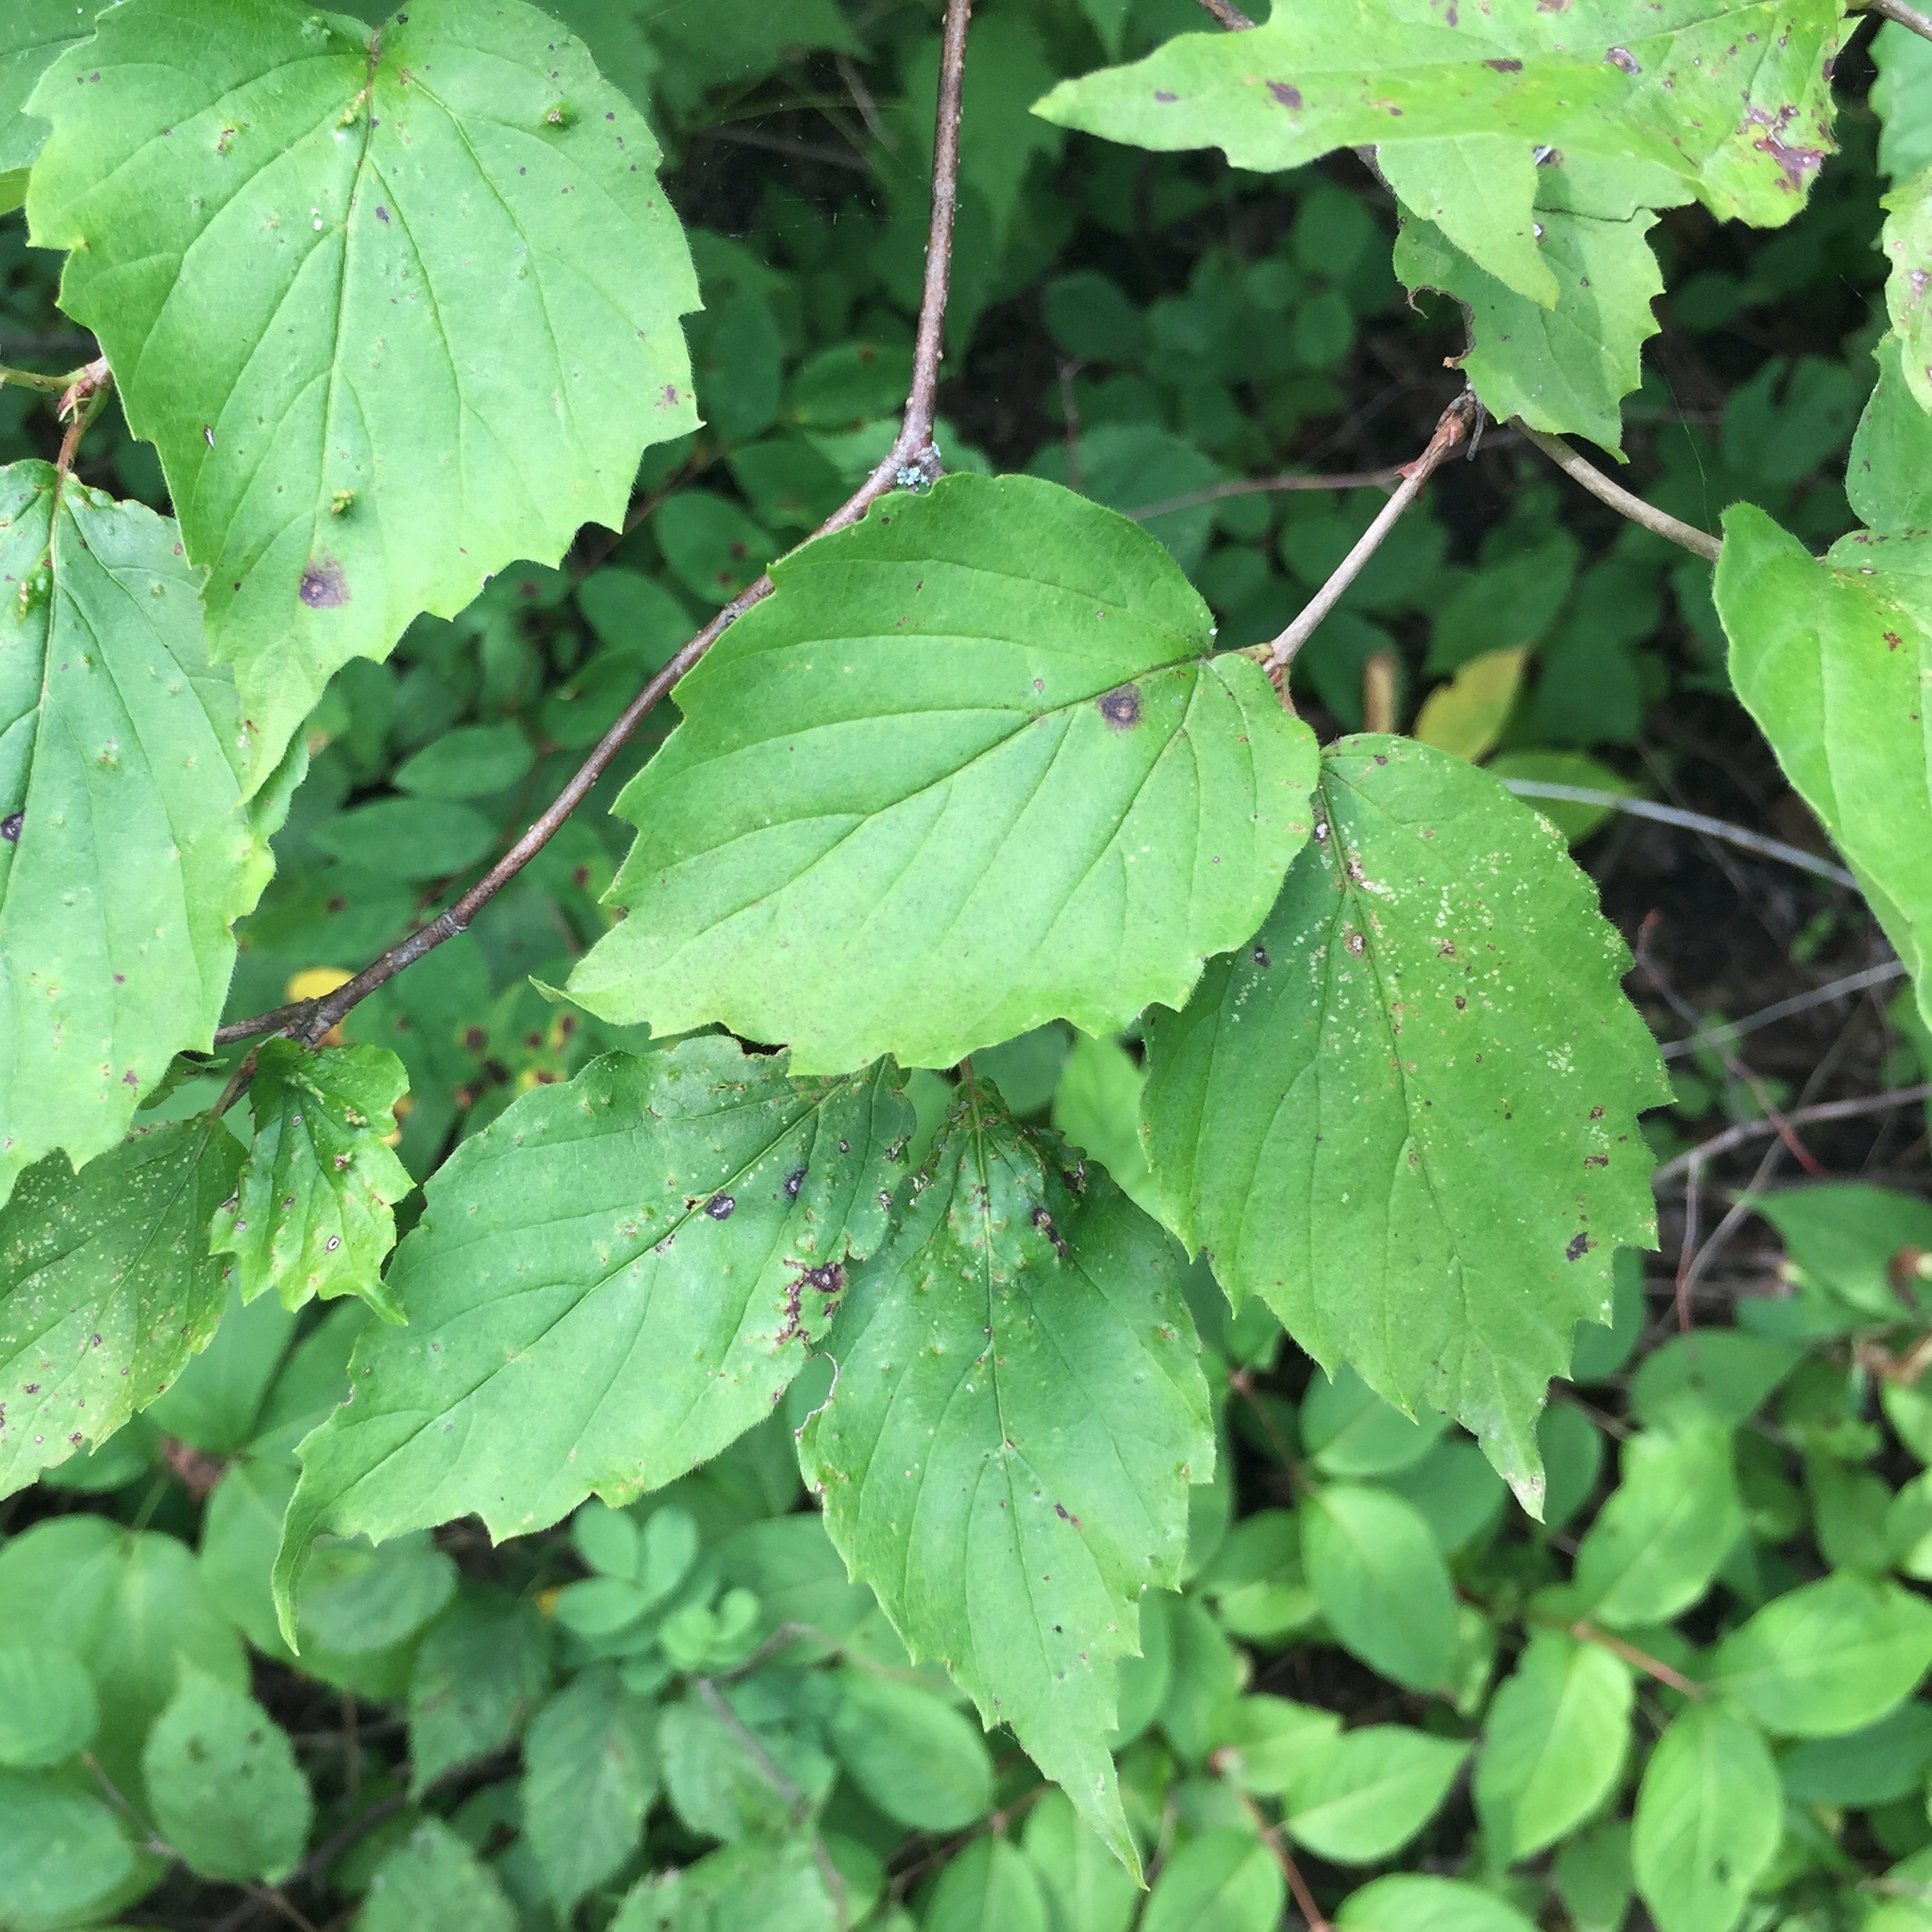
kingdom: Plantae
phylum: Tracheophyta
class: Magnoliopsida
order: Dipsacales
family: Viburnaceae
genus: Viburnum
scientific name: Viburnum rafinesqueanum
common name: Downy arrow-wood
